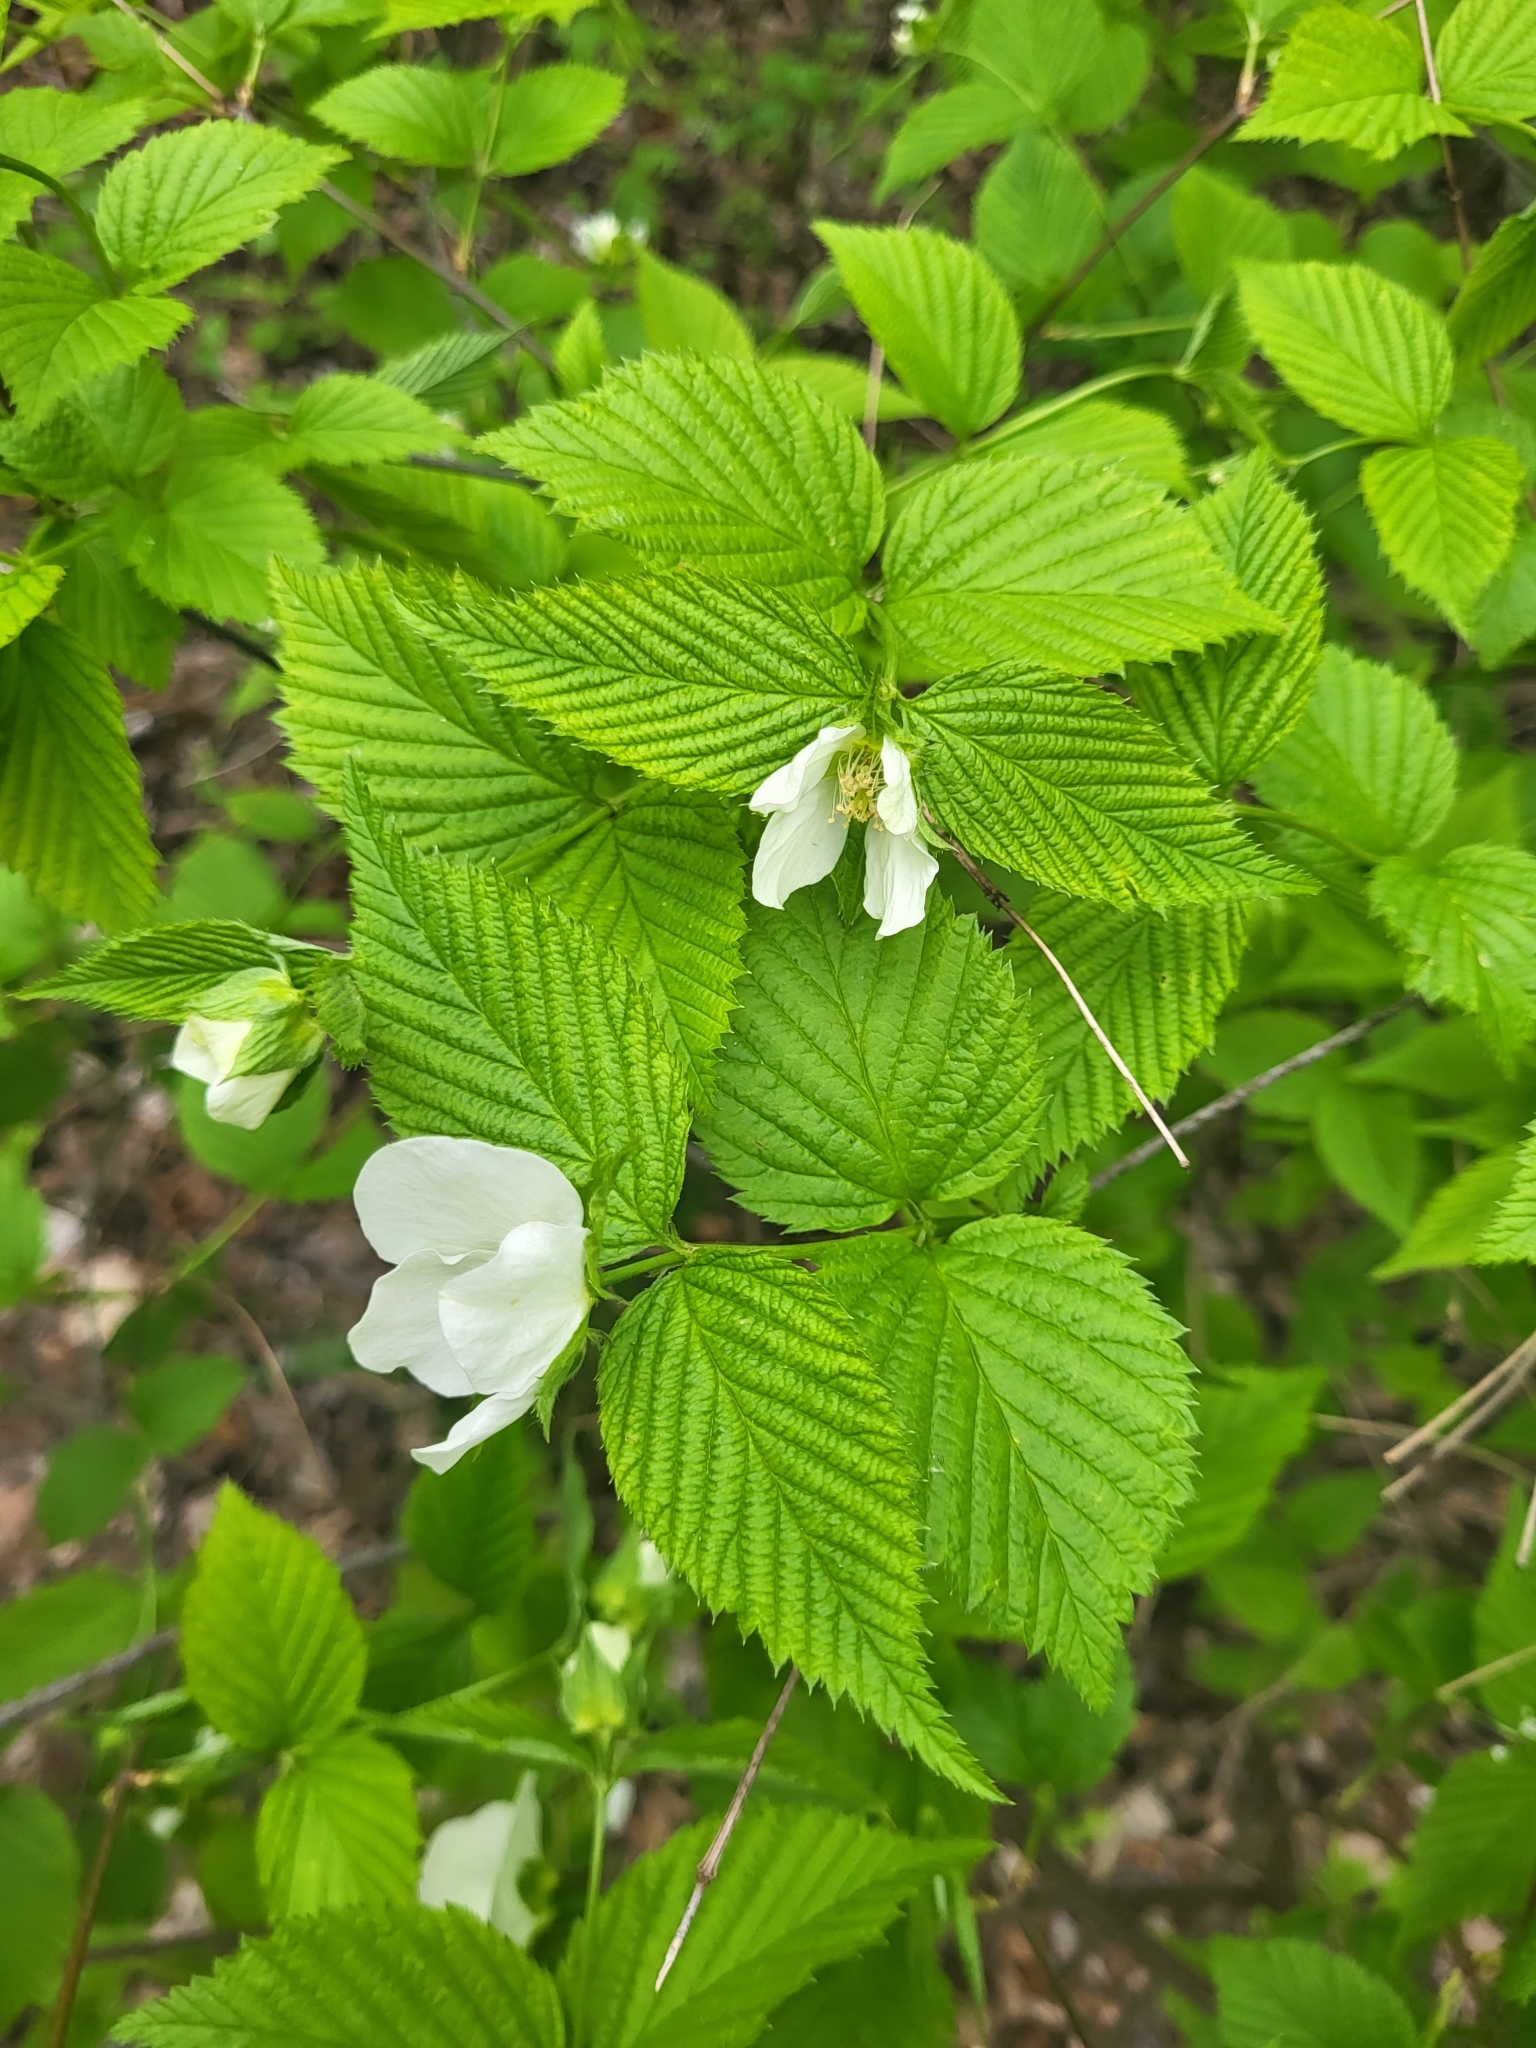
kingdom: Plantae
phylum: Tracheophyta
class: Magnoliopsida
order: Rosales
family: Rosaceae
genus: Rhodotypos
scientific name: Rhodotypos scandens
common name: Jetbead
